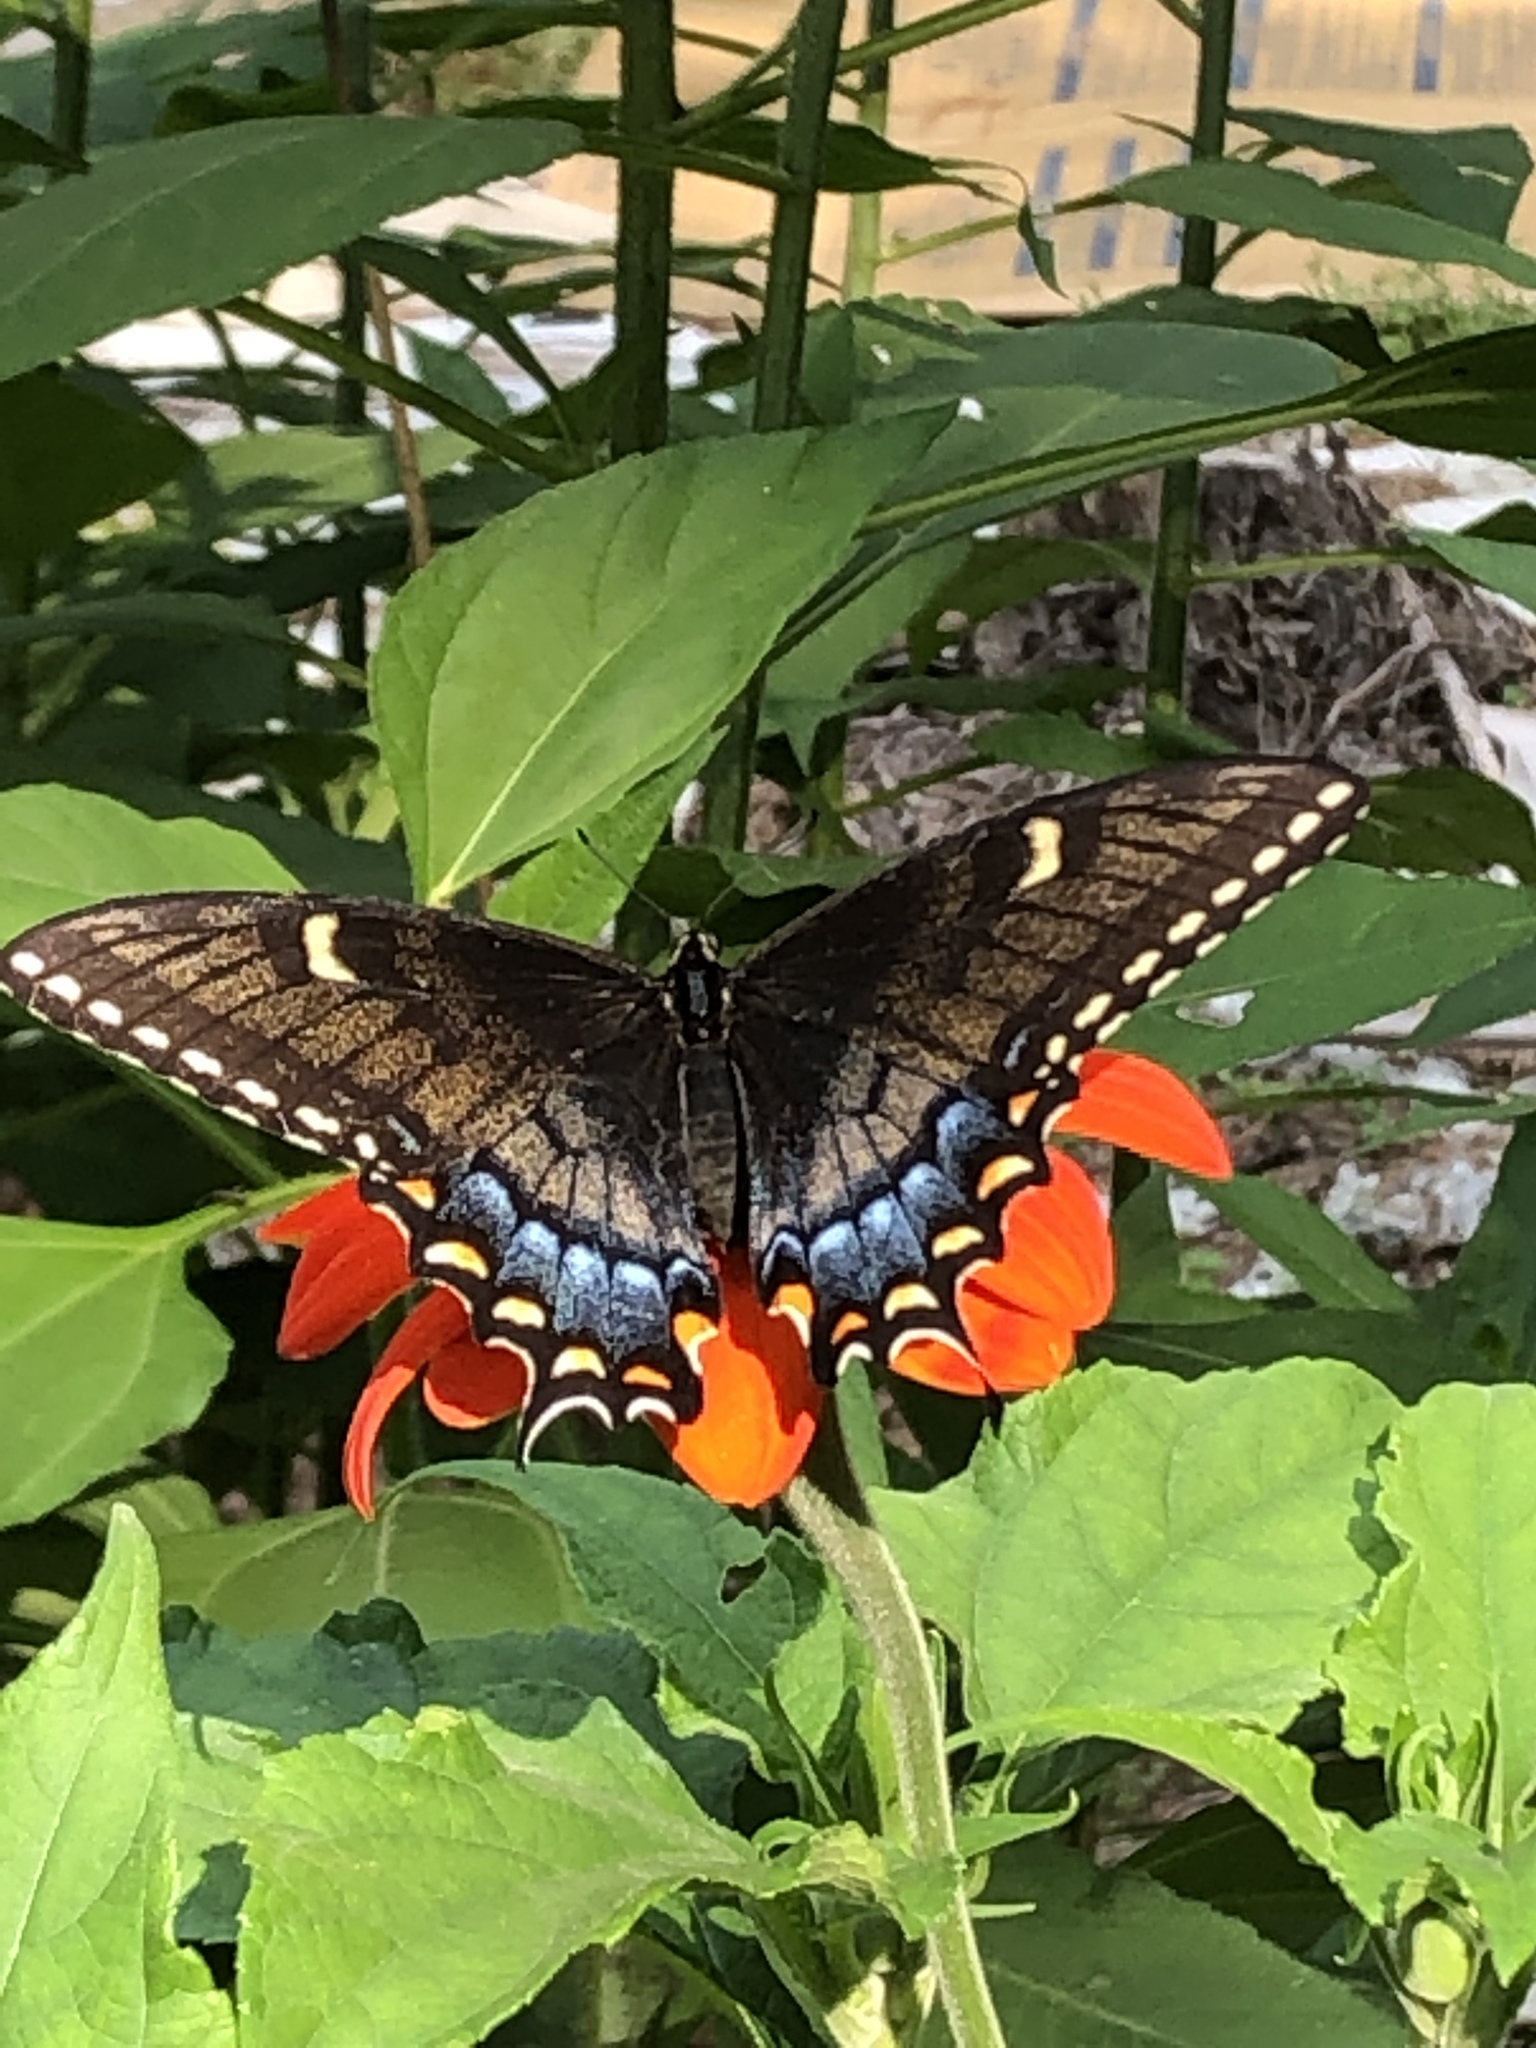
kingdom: Animalia
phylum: Arthropoda
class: Insecta
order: Lepidoptera
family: Papilionidae
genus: Papilio
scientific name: Papilio glaucus
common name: Tiger swallowtail
